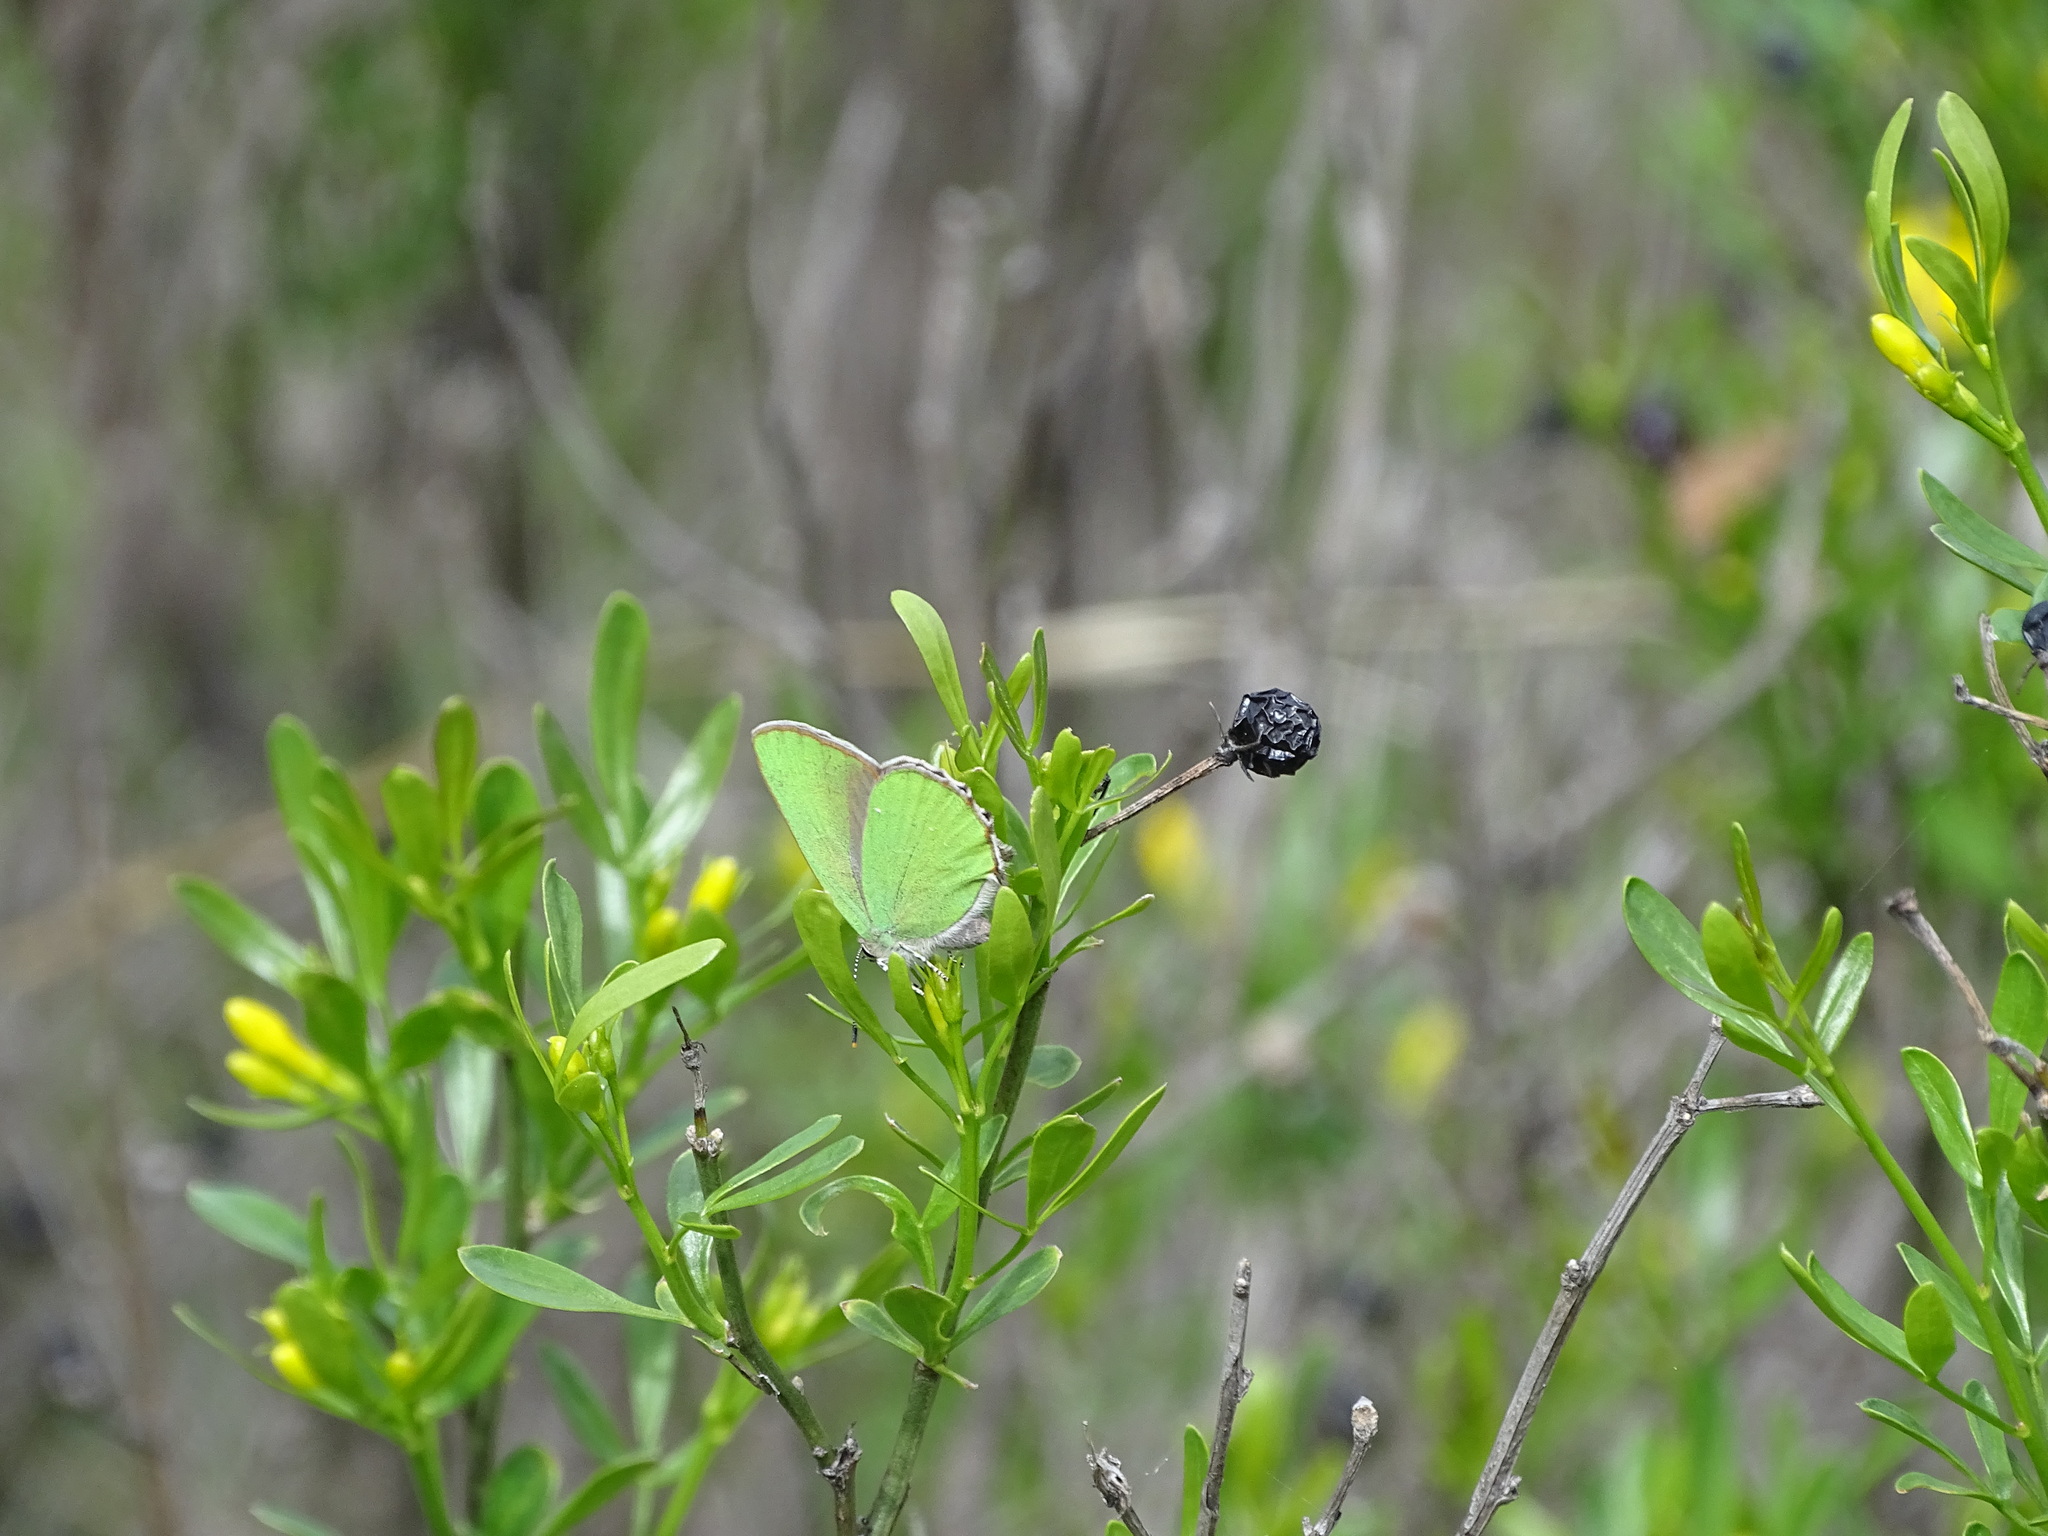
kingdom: Animalia
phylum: Arthropoda
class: Insecta
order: Lepidoptera
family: Lycaenidae
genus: Callophrys
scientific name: Callophrys rubi
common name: Green hairstreak
